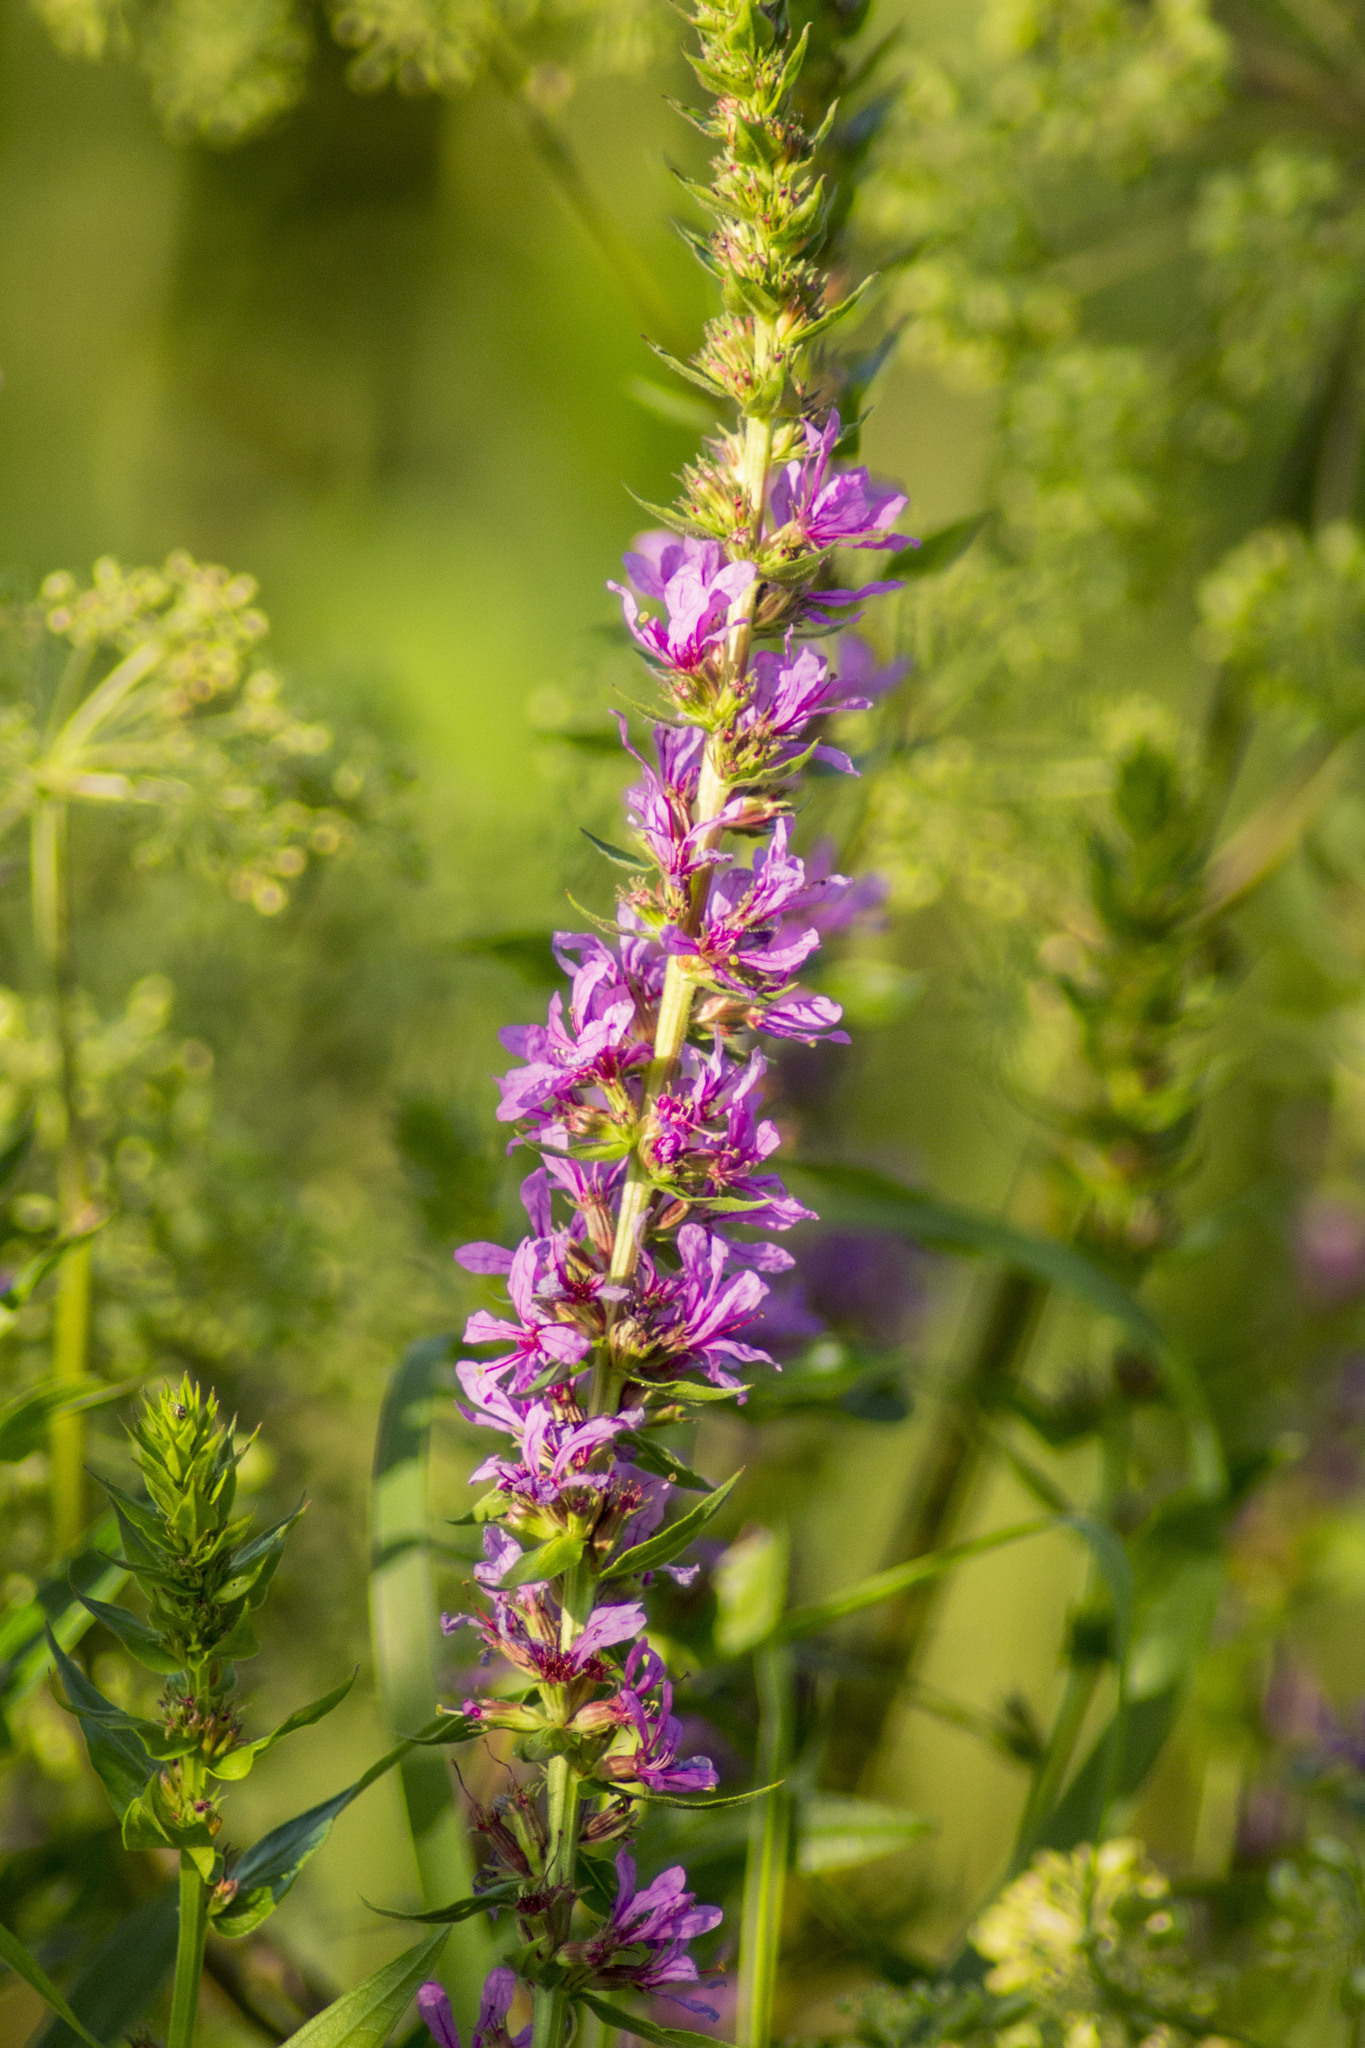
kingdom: Plantae
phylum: Tracheophyta
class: Magnoliopsida
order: Myrtales
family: Lythraceae
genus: Lythrum
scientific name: Lythrum salicaria
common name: Purple loosestrife
